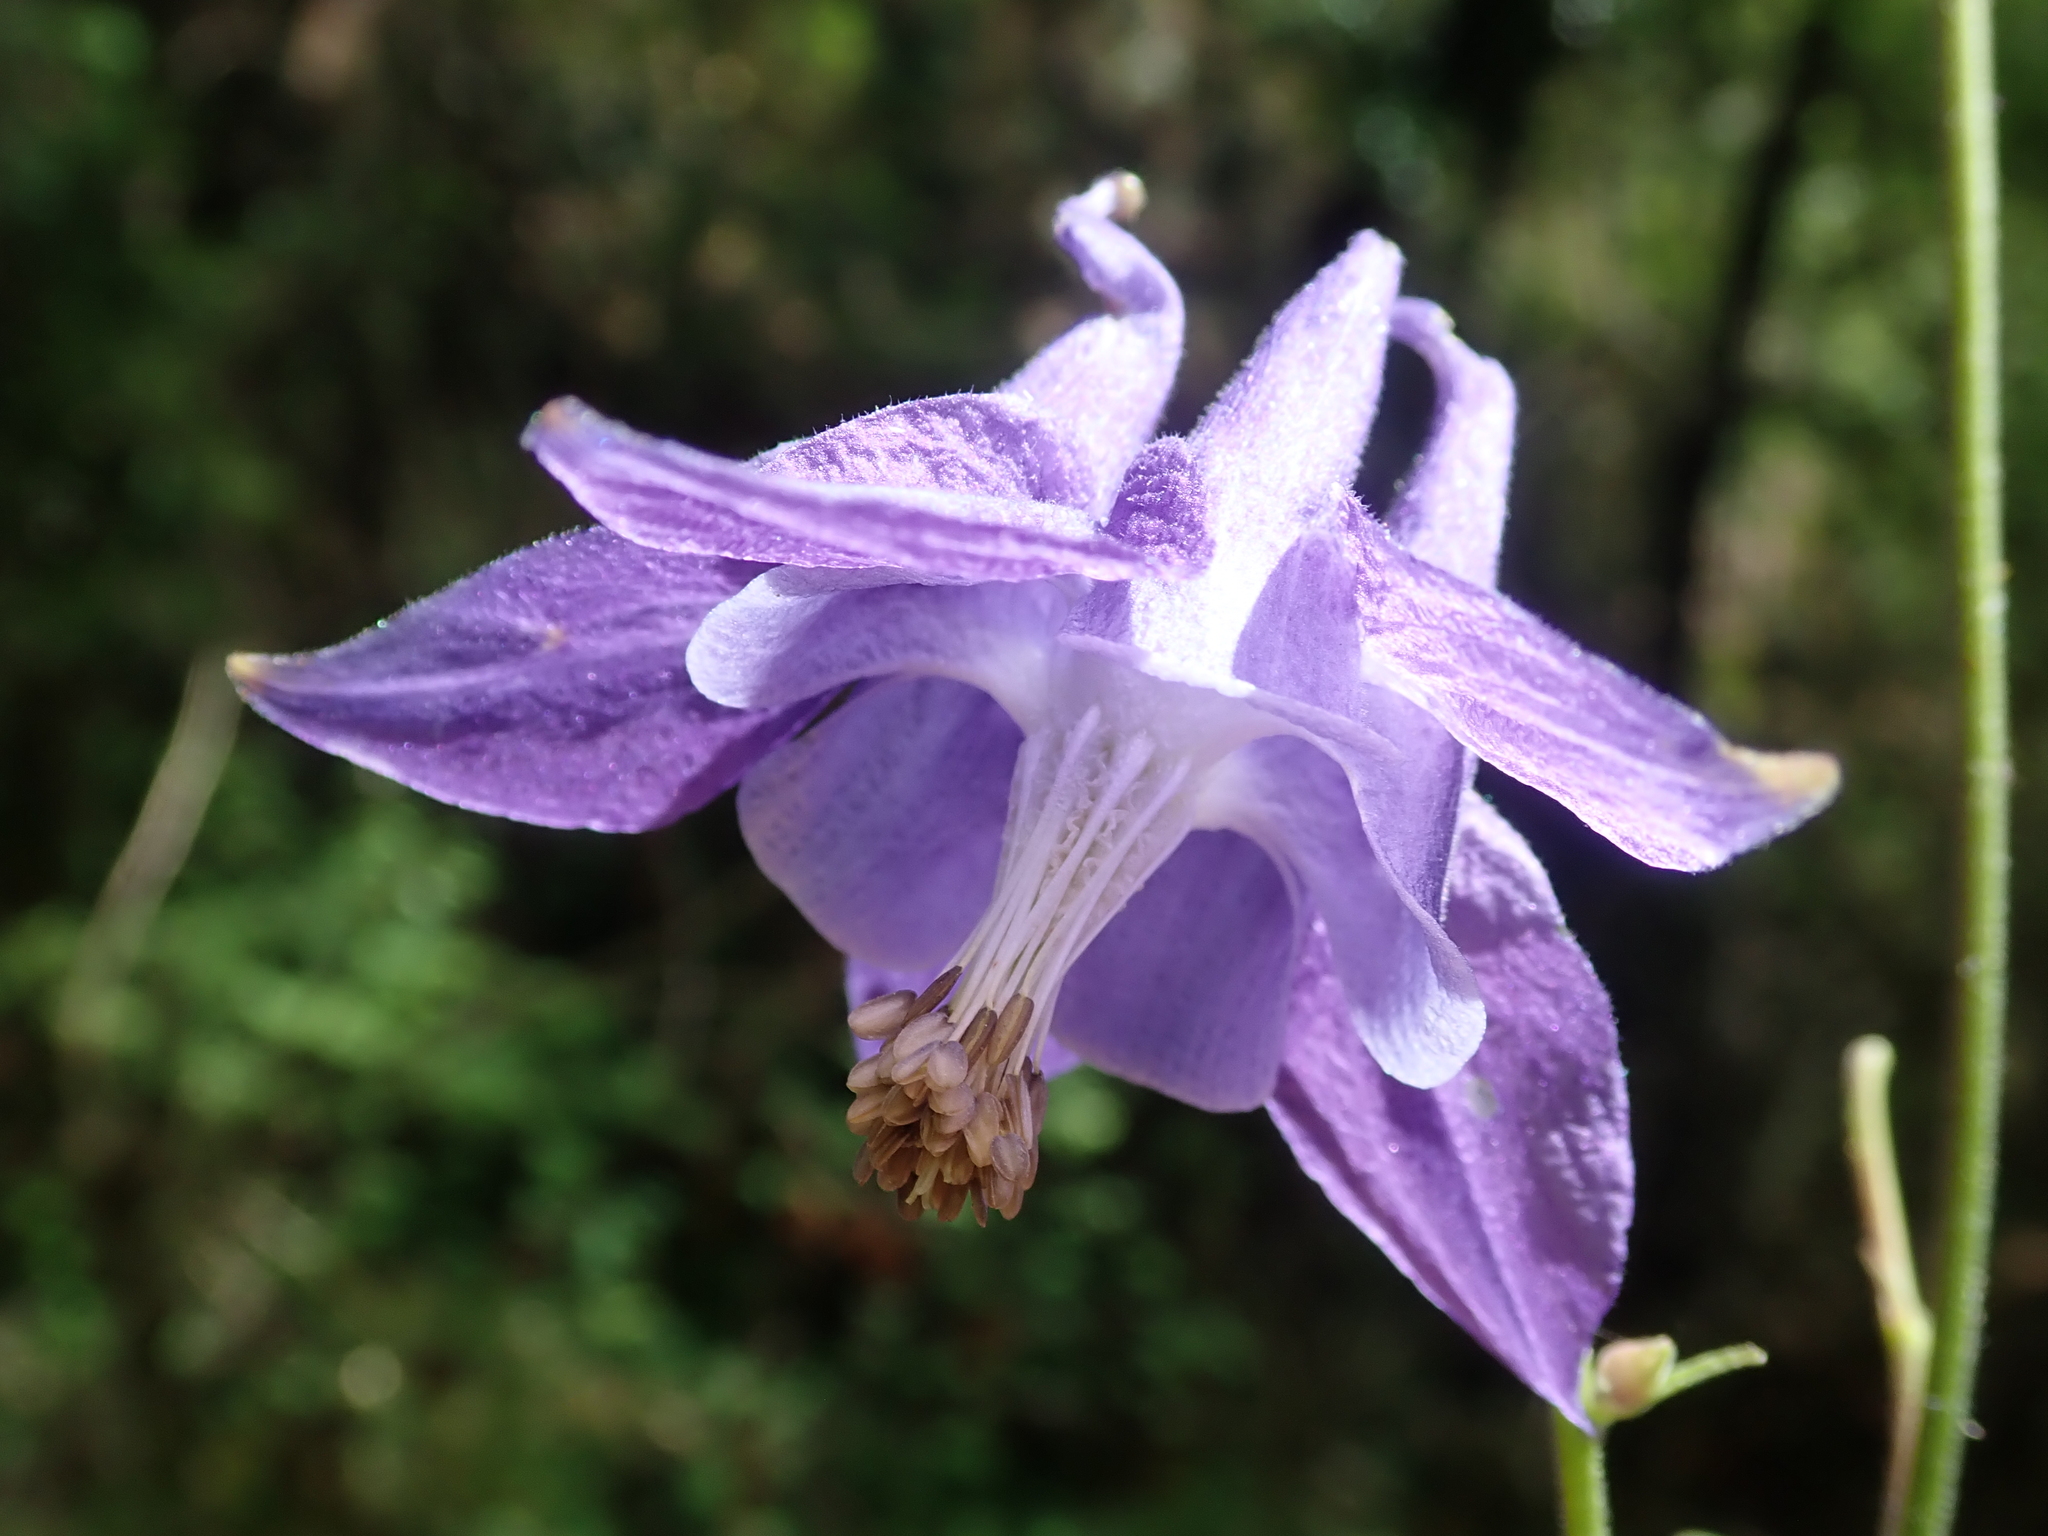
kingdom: Plantae
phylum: Tracheophyta
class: Magnoliopsida
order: Ranunculales
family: Ranunculaceae
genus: Aquilegia
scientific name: Aquilegia vulgaris
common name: Columbine
